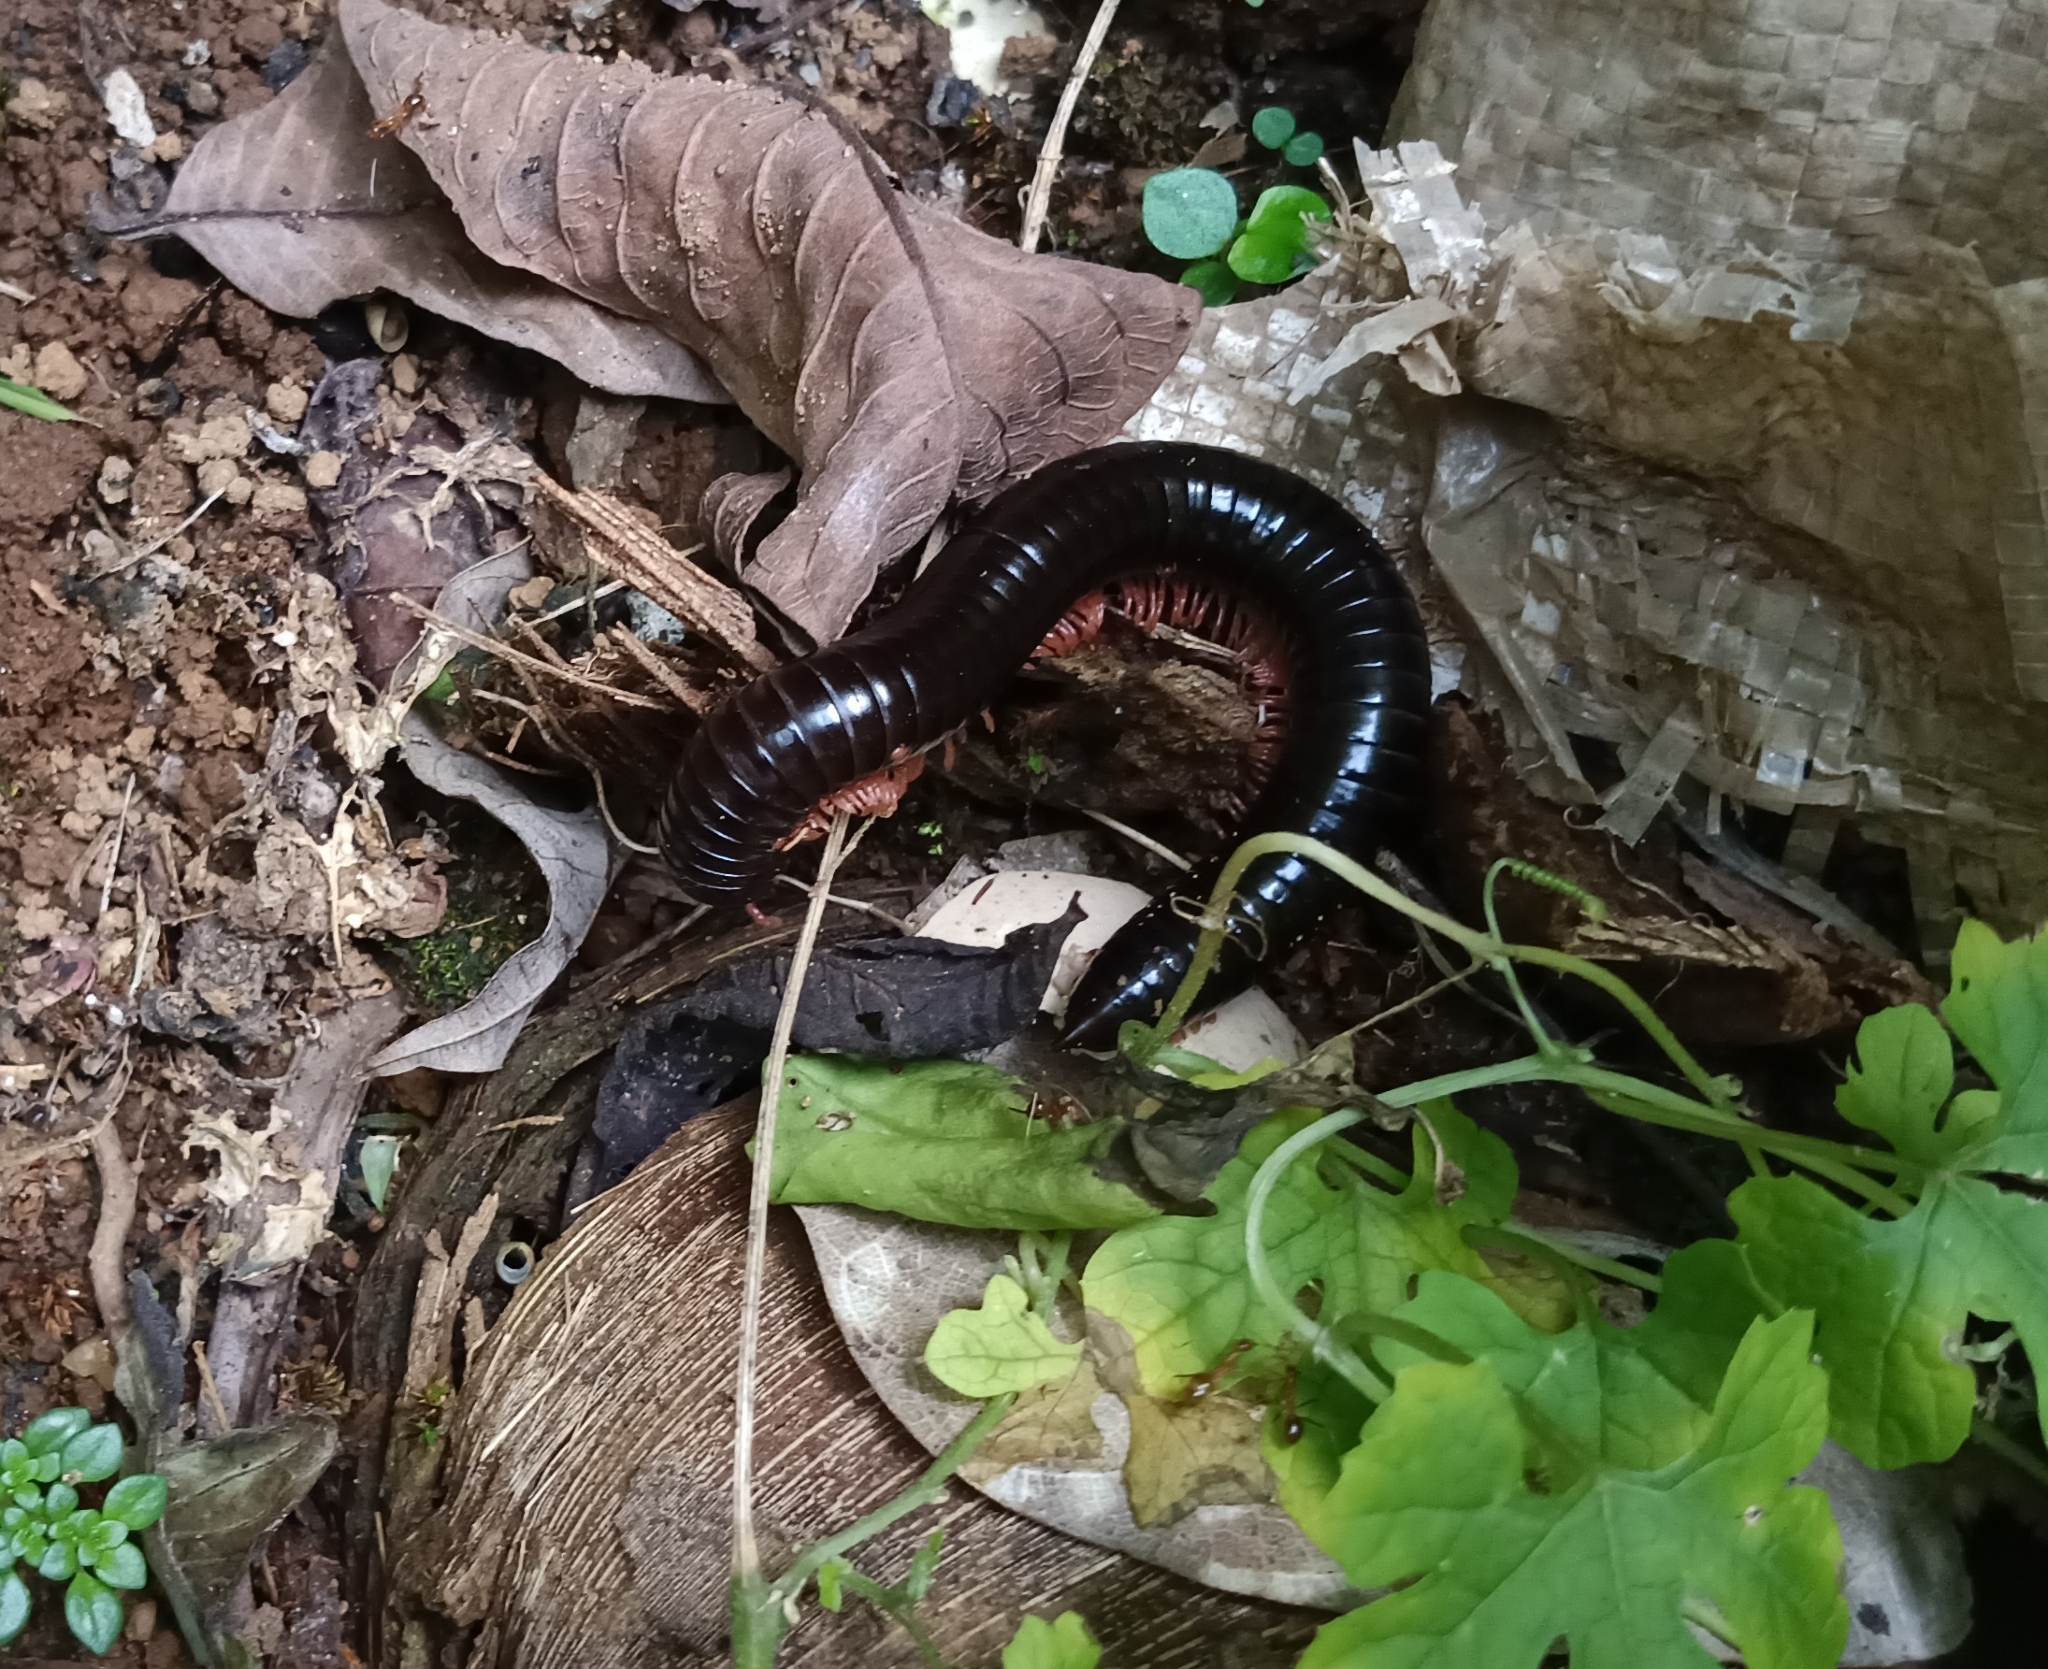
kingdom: Animalia
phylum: Arthropoda
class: Diplopoda
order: Spirostreptida
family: Harpagophoridae
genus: Phyllogonostreptus
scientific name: Phyllogonostreptus nigrolabiatus
